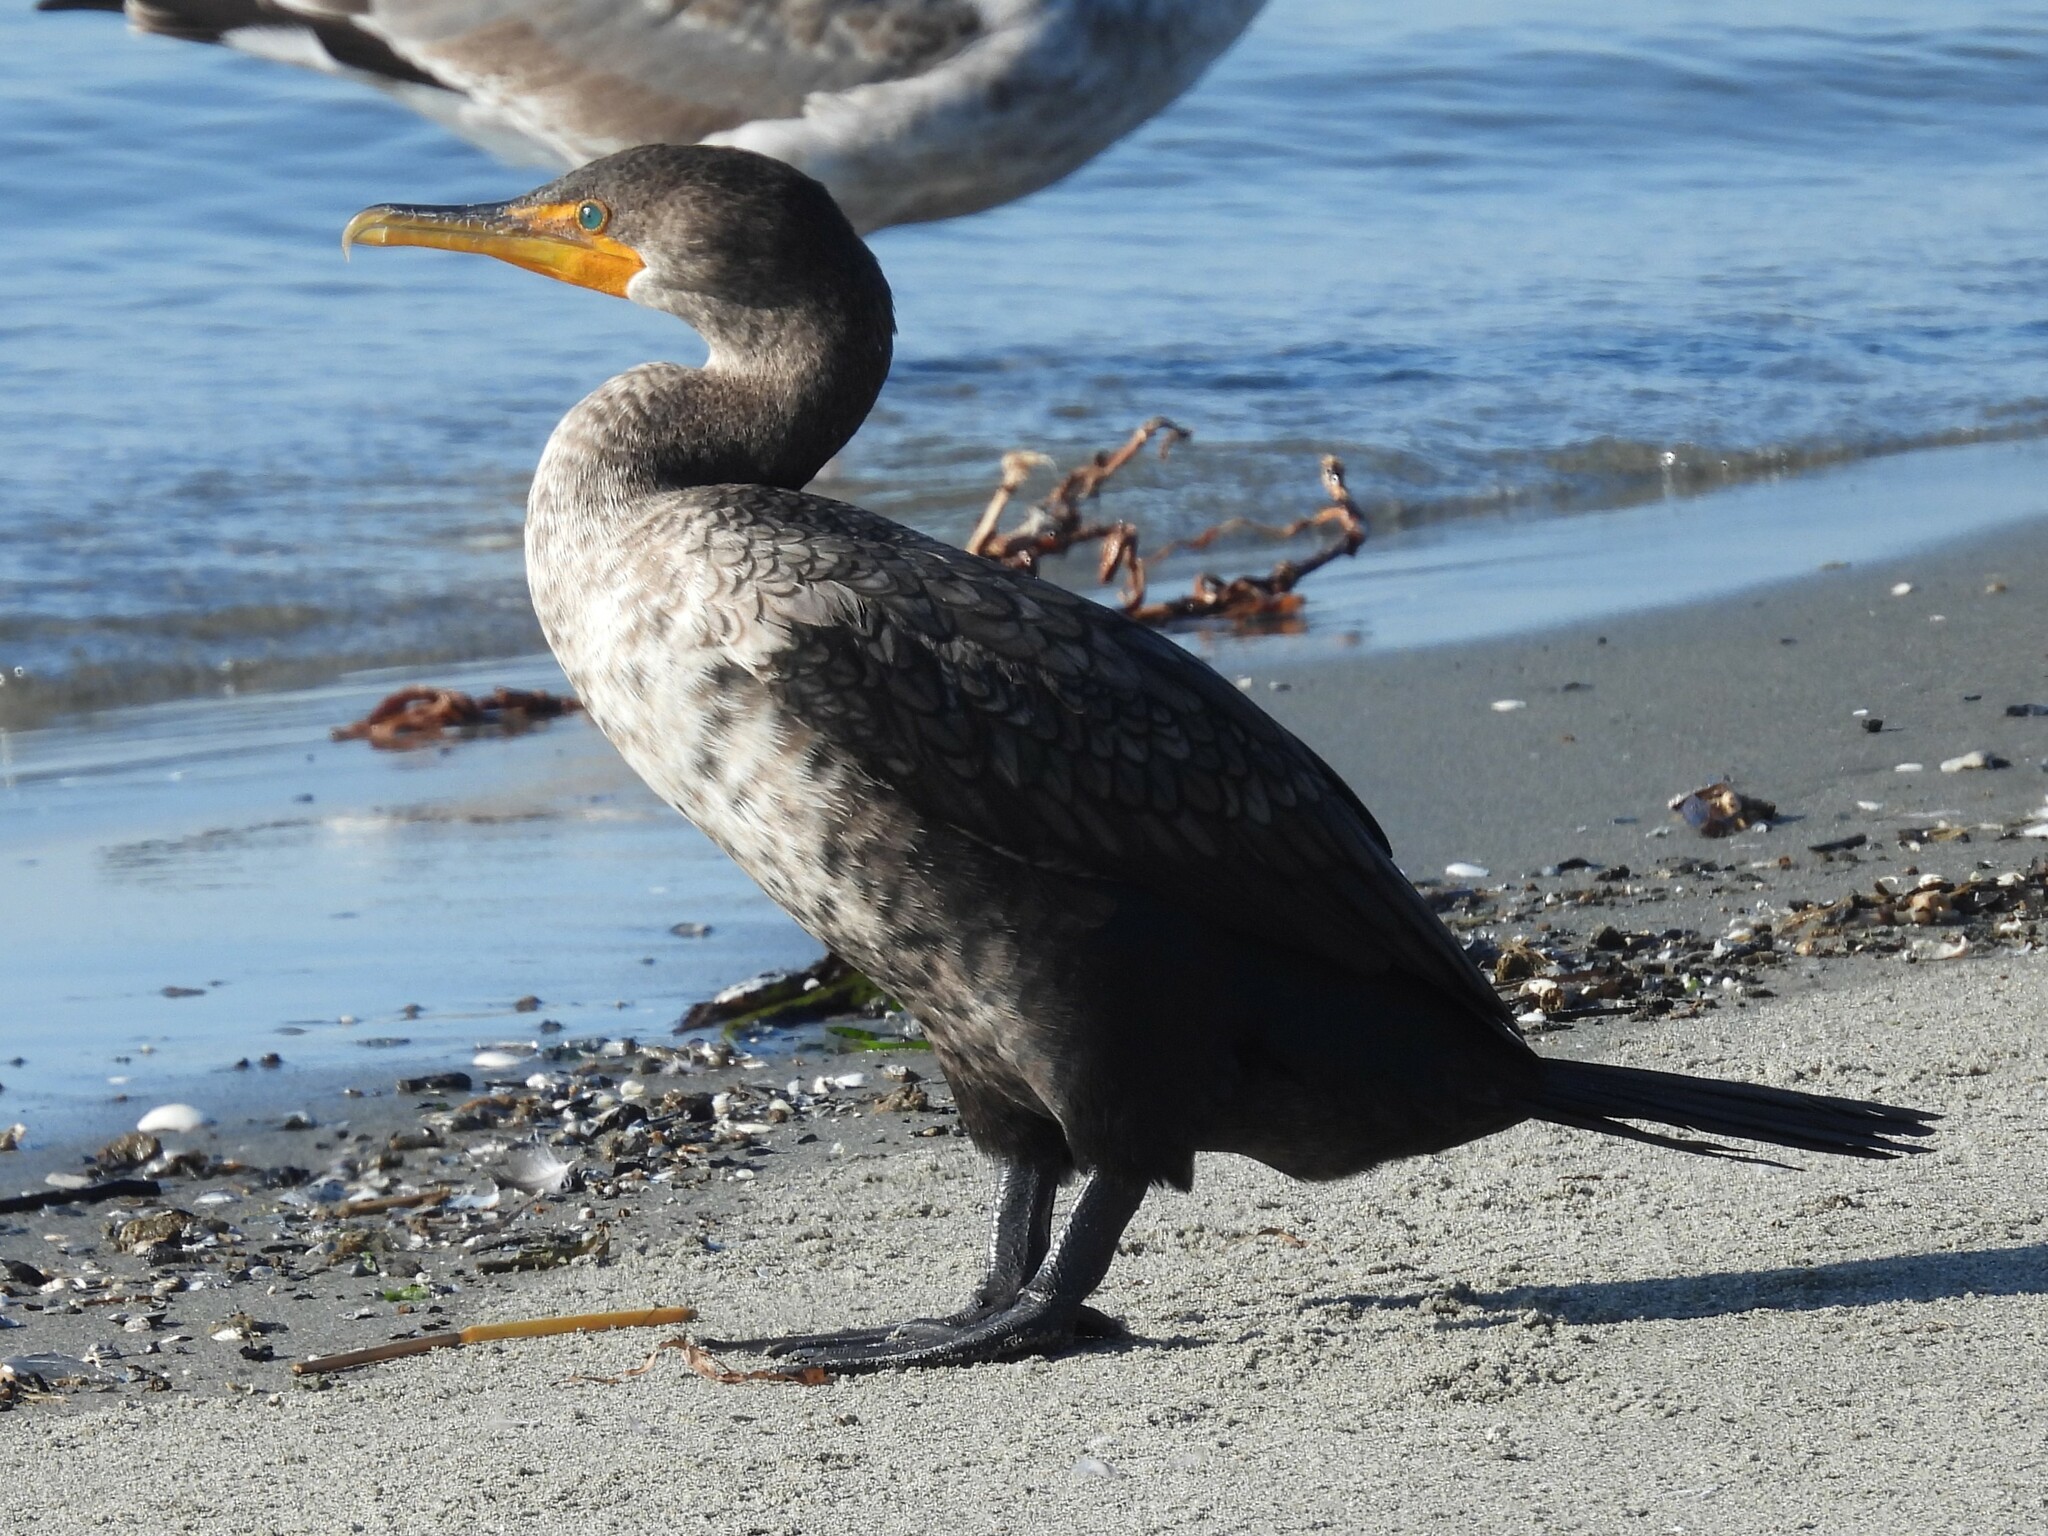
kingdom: Animalia
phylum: Chordata
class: Aves
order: Suliformes
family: Phalacrocoracidae
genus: Phalacrocorax
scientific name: Phalacrocorax auritus
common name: Double-crested cormorant
